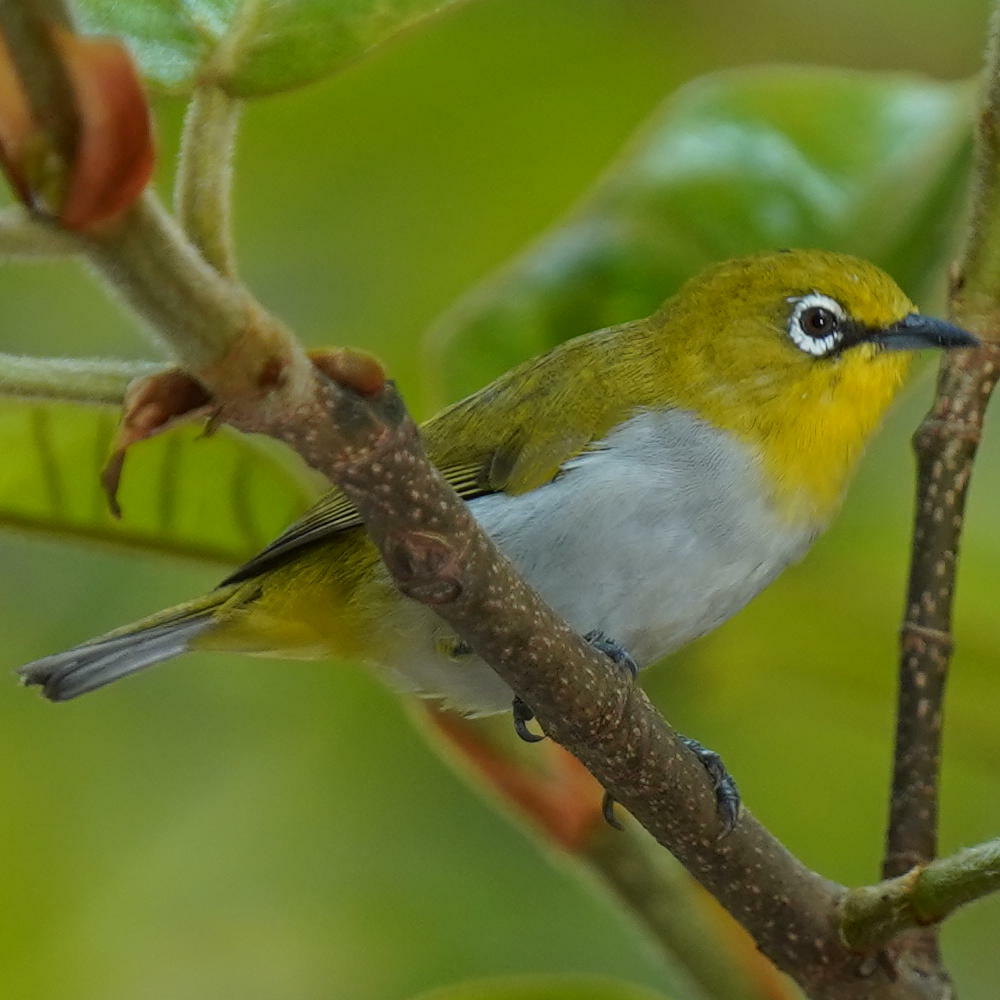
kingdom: Animalia
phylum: Chordata
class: Aves
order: Passeriformes
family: Zosteropidae
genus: Zosterops
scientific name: Zosterops palpebrosus
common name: Oriental white-eye
